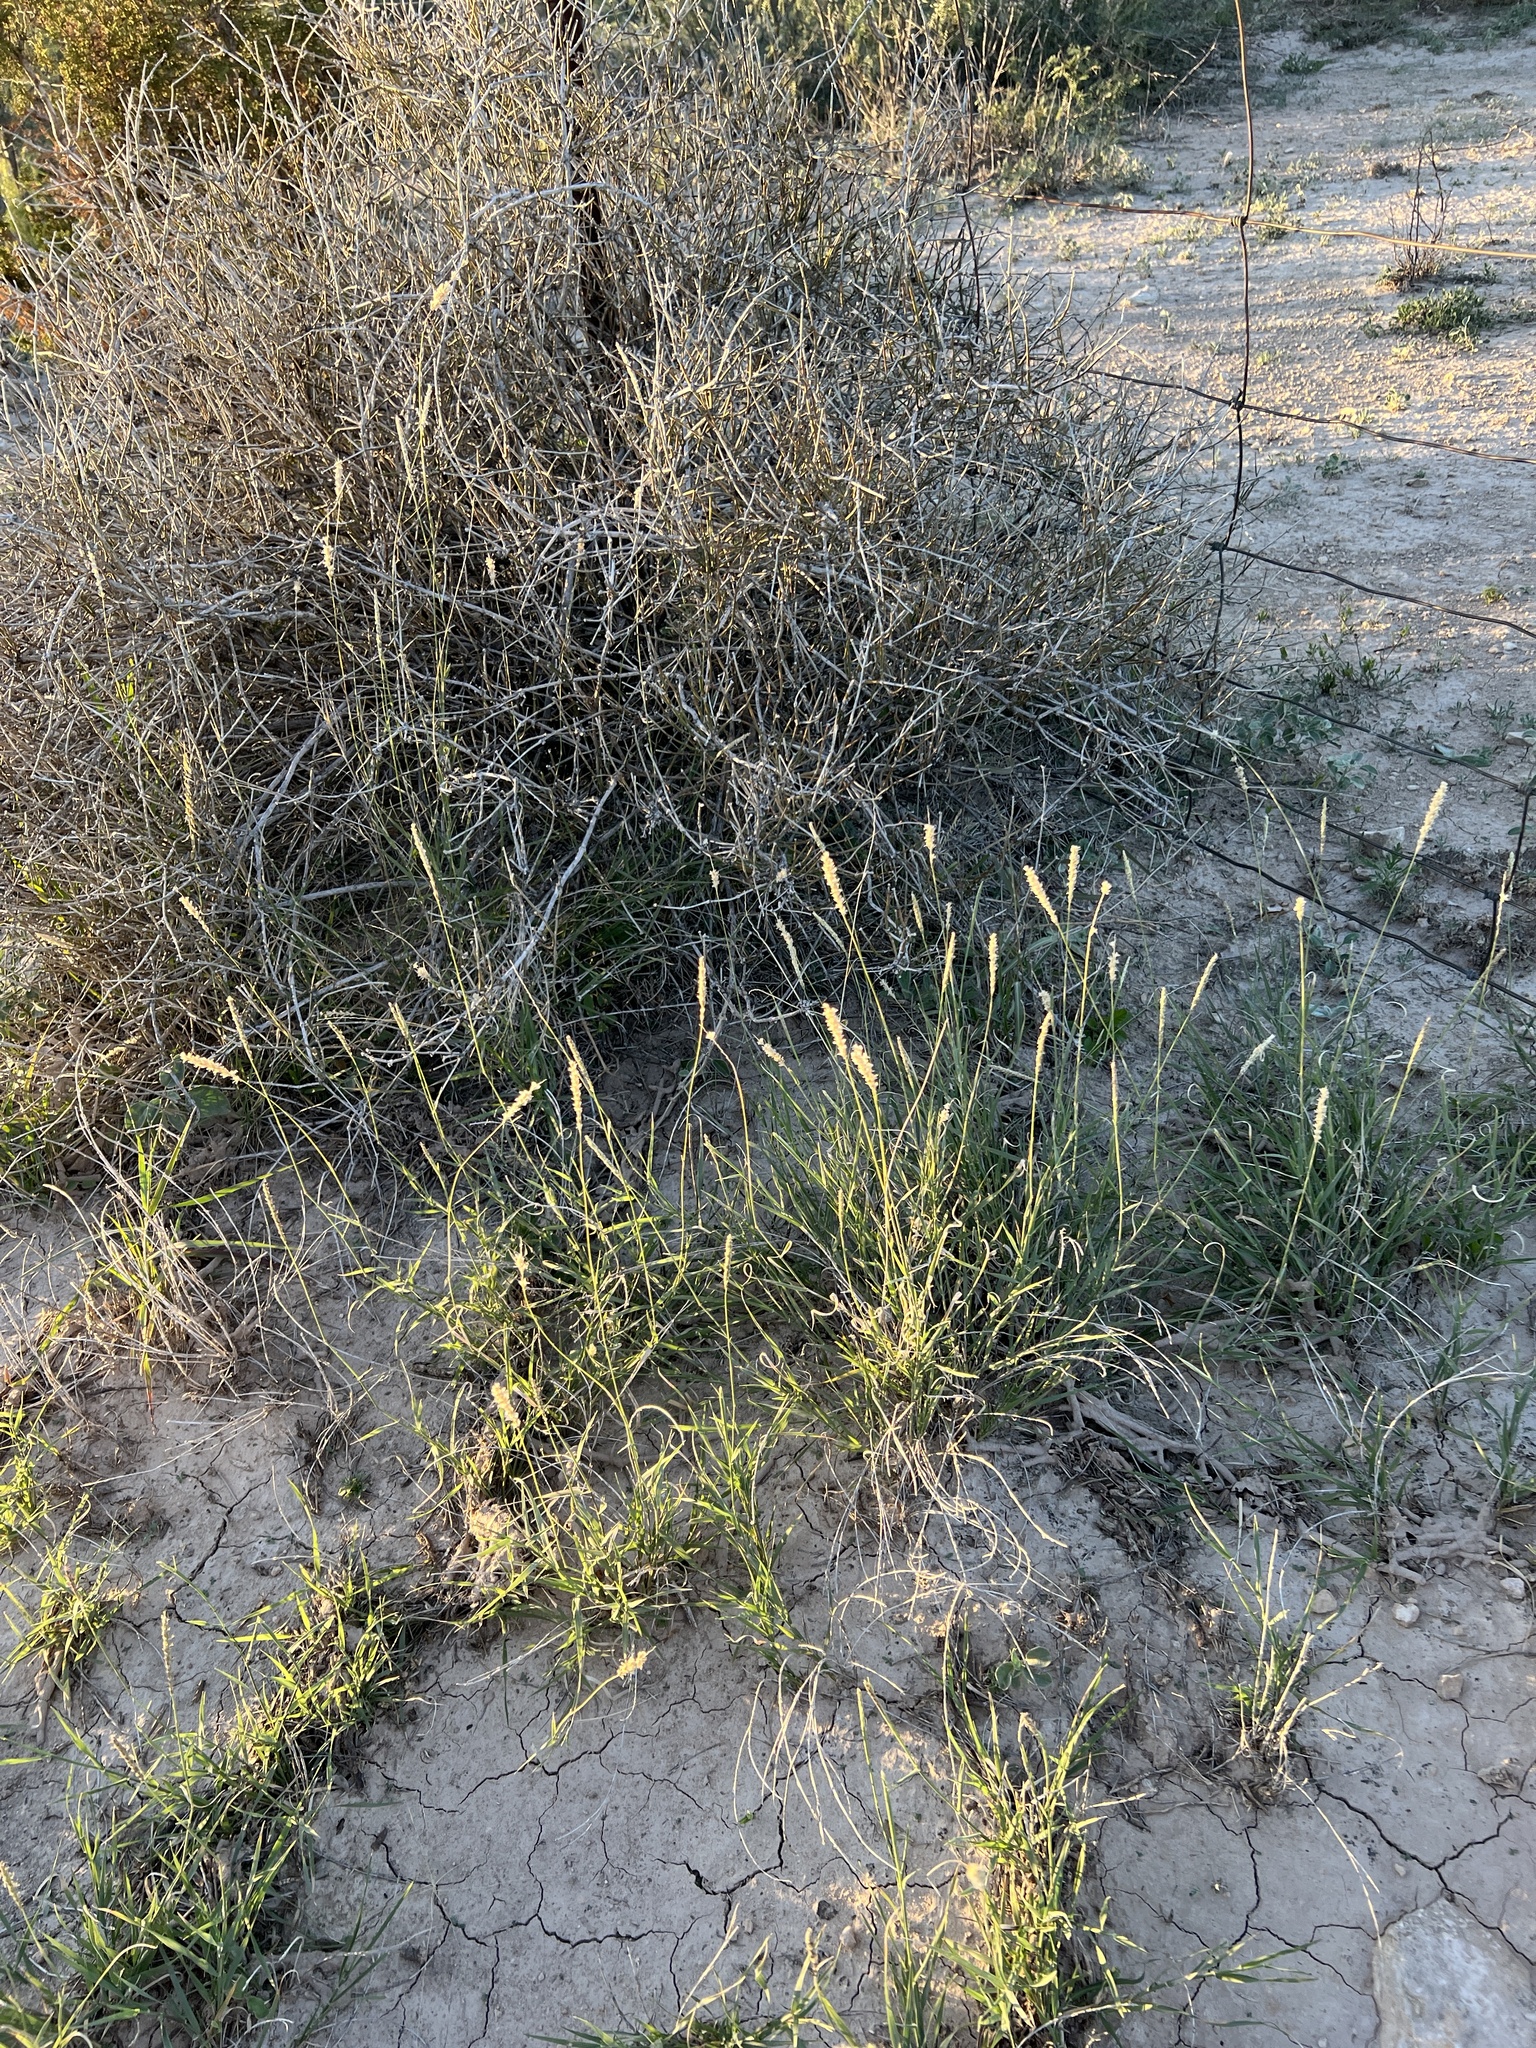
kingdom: Plantae
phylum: Tracheophyta
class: Liliopsida
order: Poales
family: Poaceae
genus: Hilaria
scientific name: Hilaria mutica
